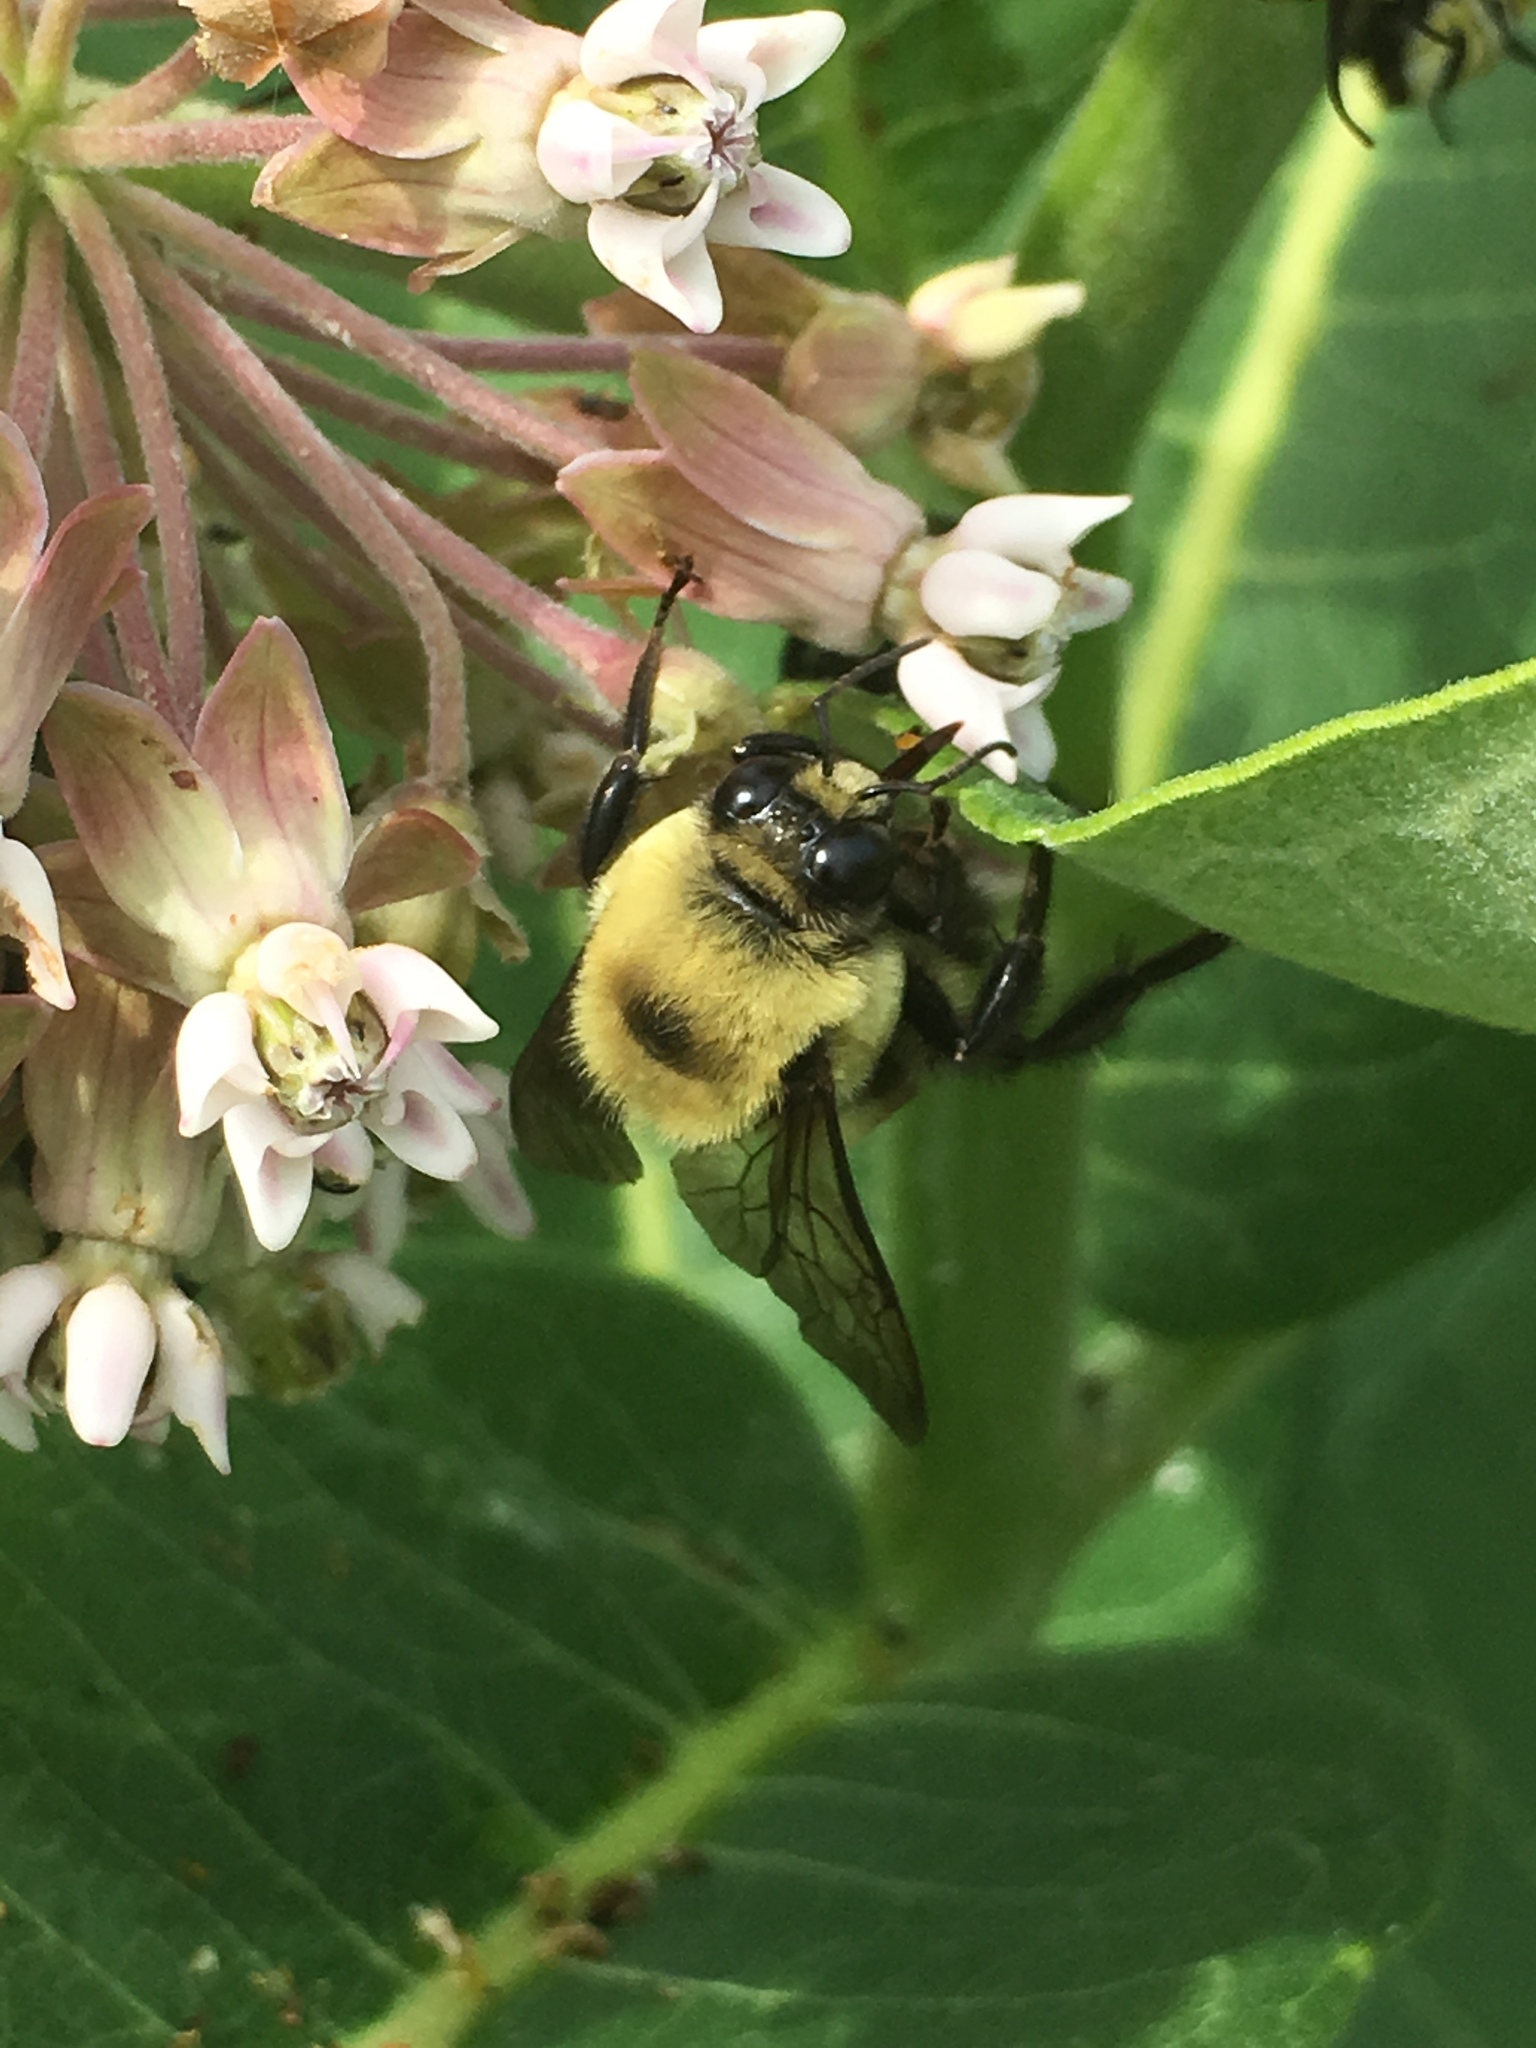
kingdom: Animalia
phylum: Arthropoda
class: Insecta
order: Hymenoptera
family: Apidae
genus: Bombus
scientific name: Bombus griseocollis
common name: Brown-belted bumble bee
